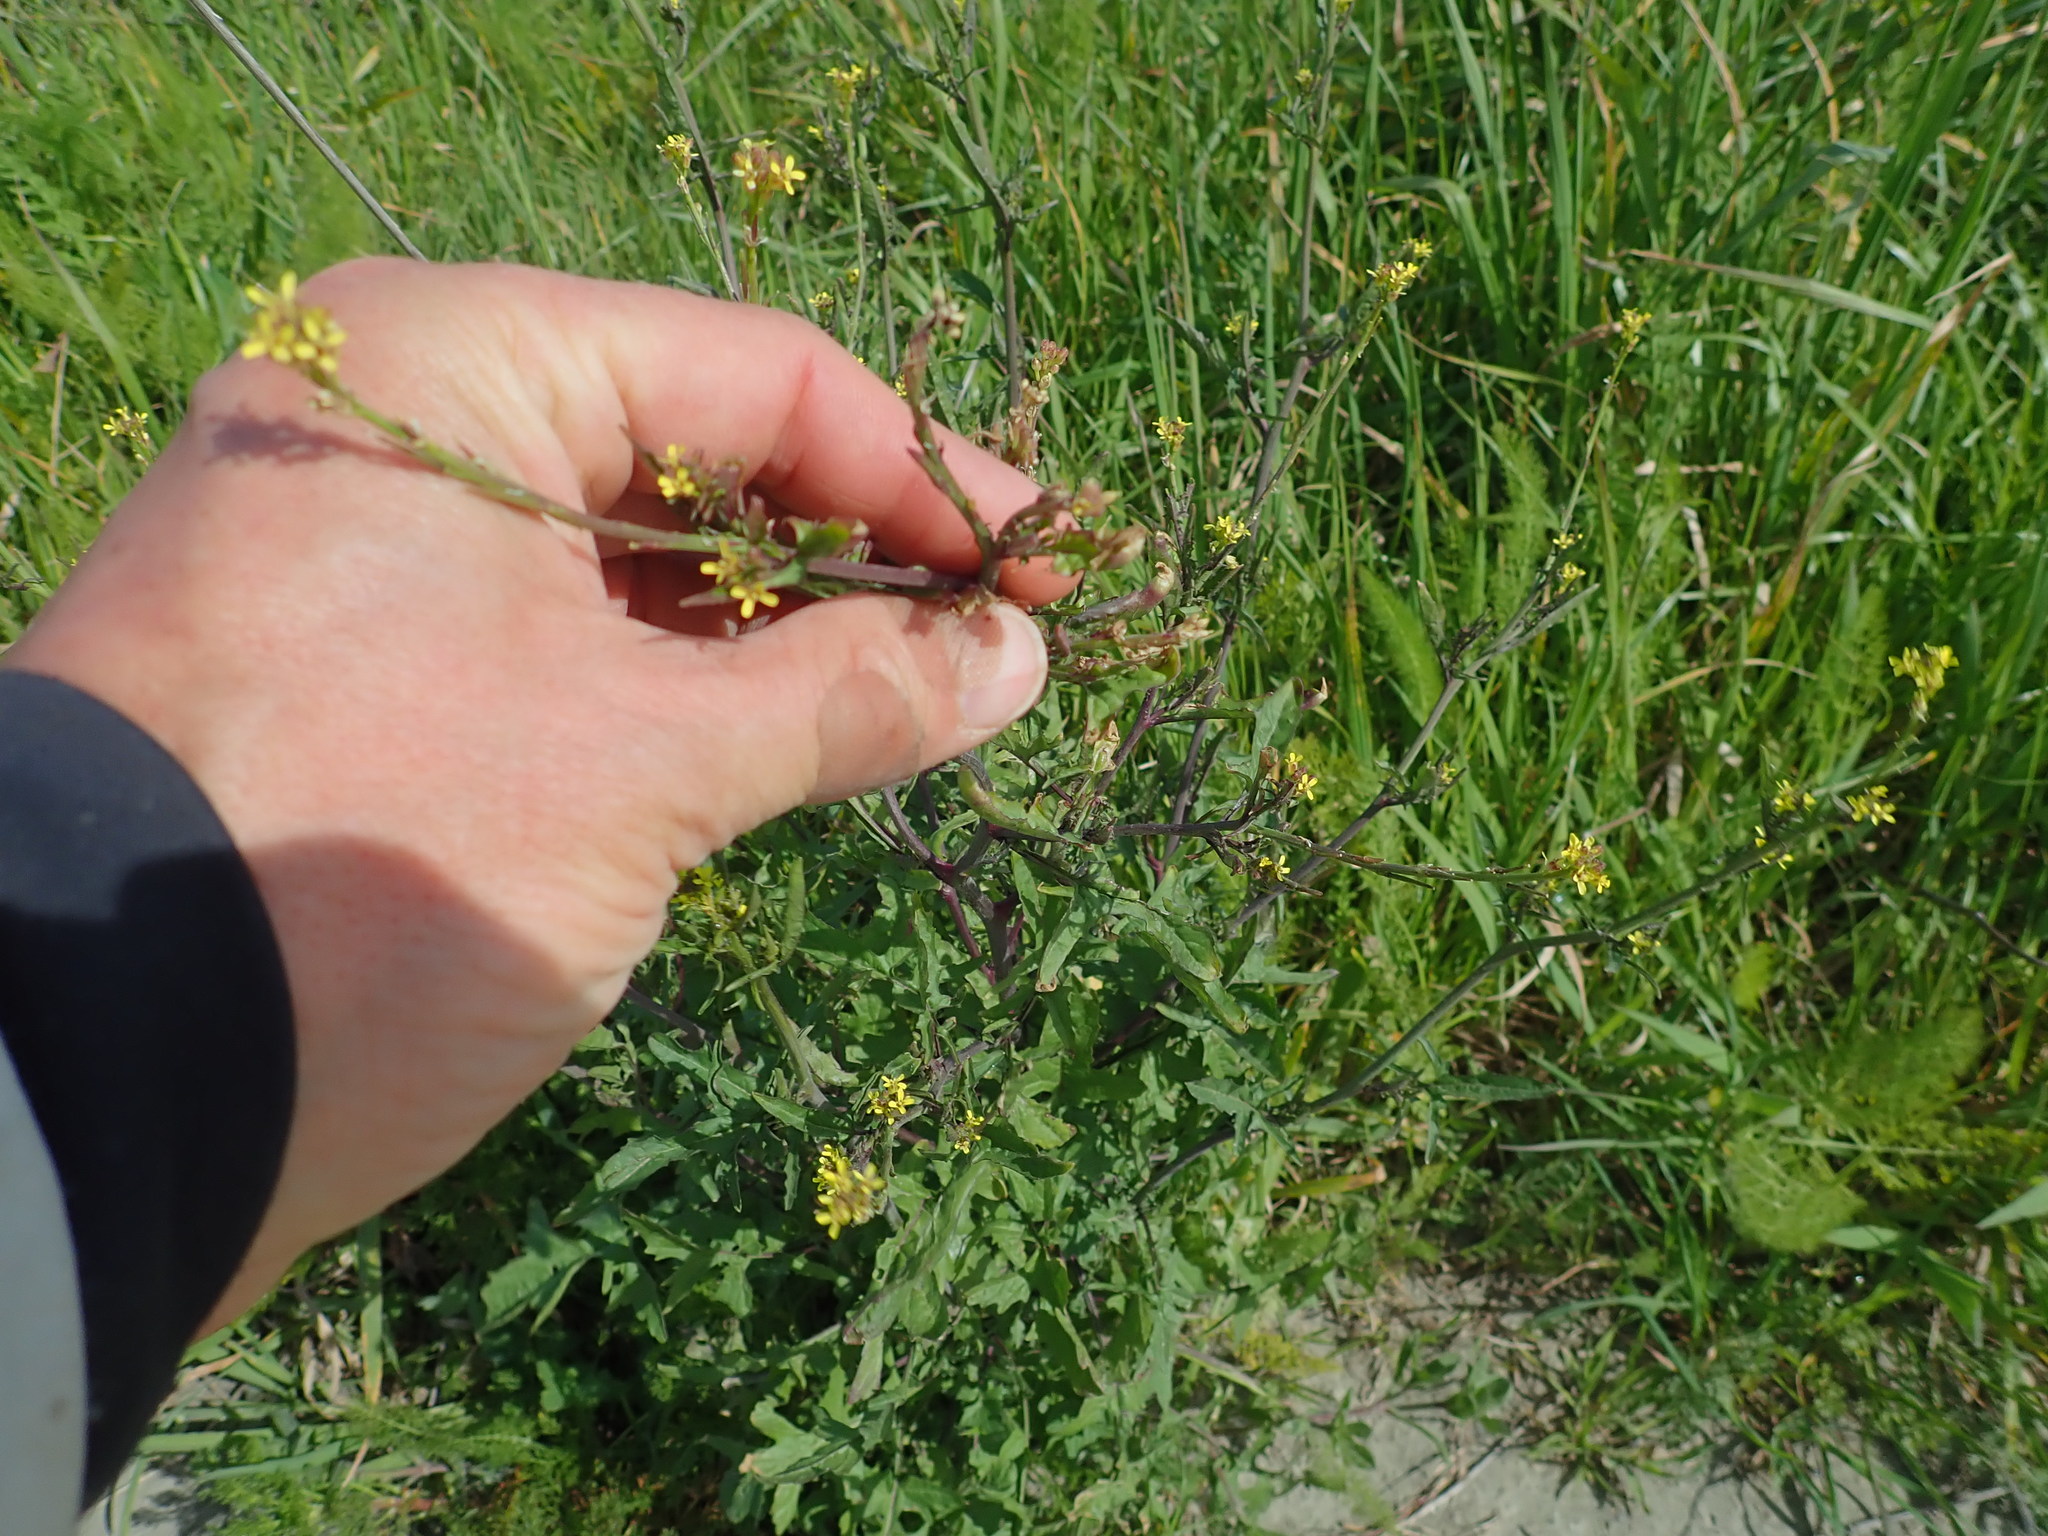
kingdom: Plantae
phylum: Tracheophyta
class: Magnoliopsida
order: Brassicales
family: Brassicaceae
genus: Sisymbrium
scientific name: Sisymbrium officinale
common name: Hedge mustard
